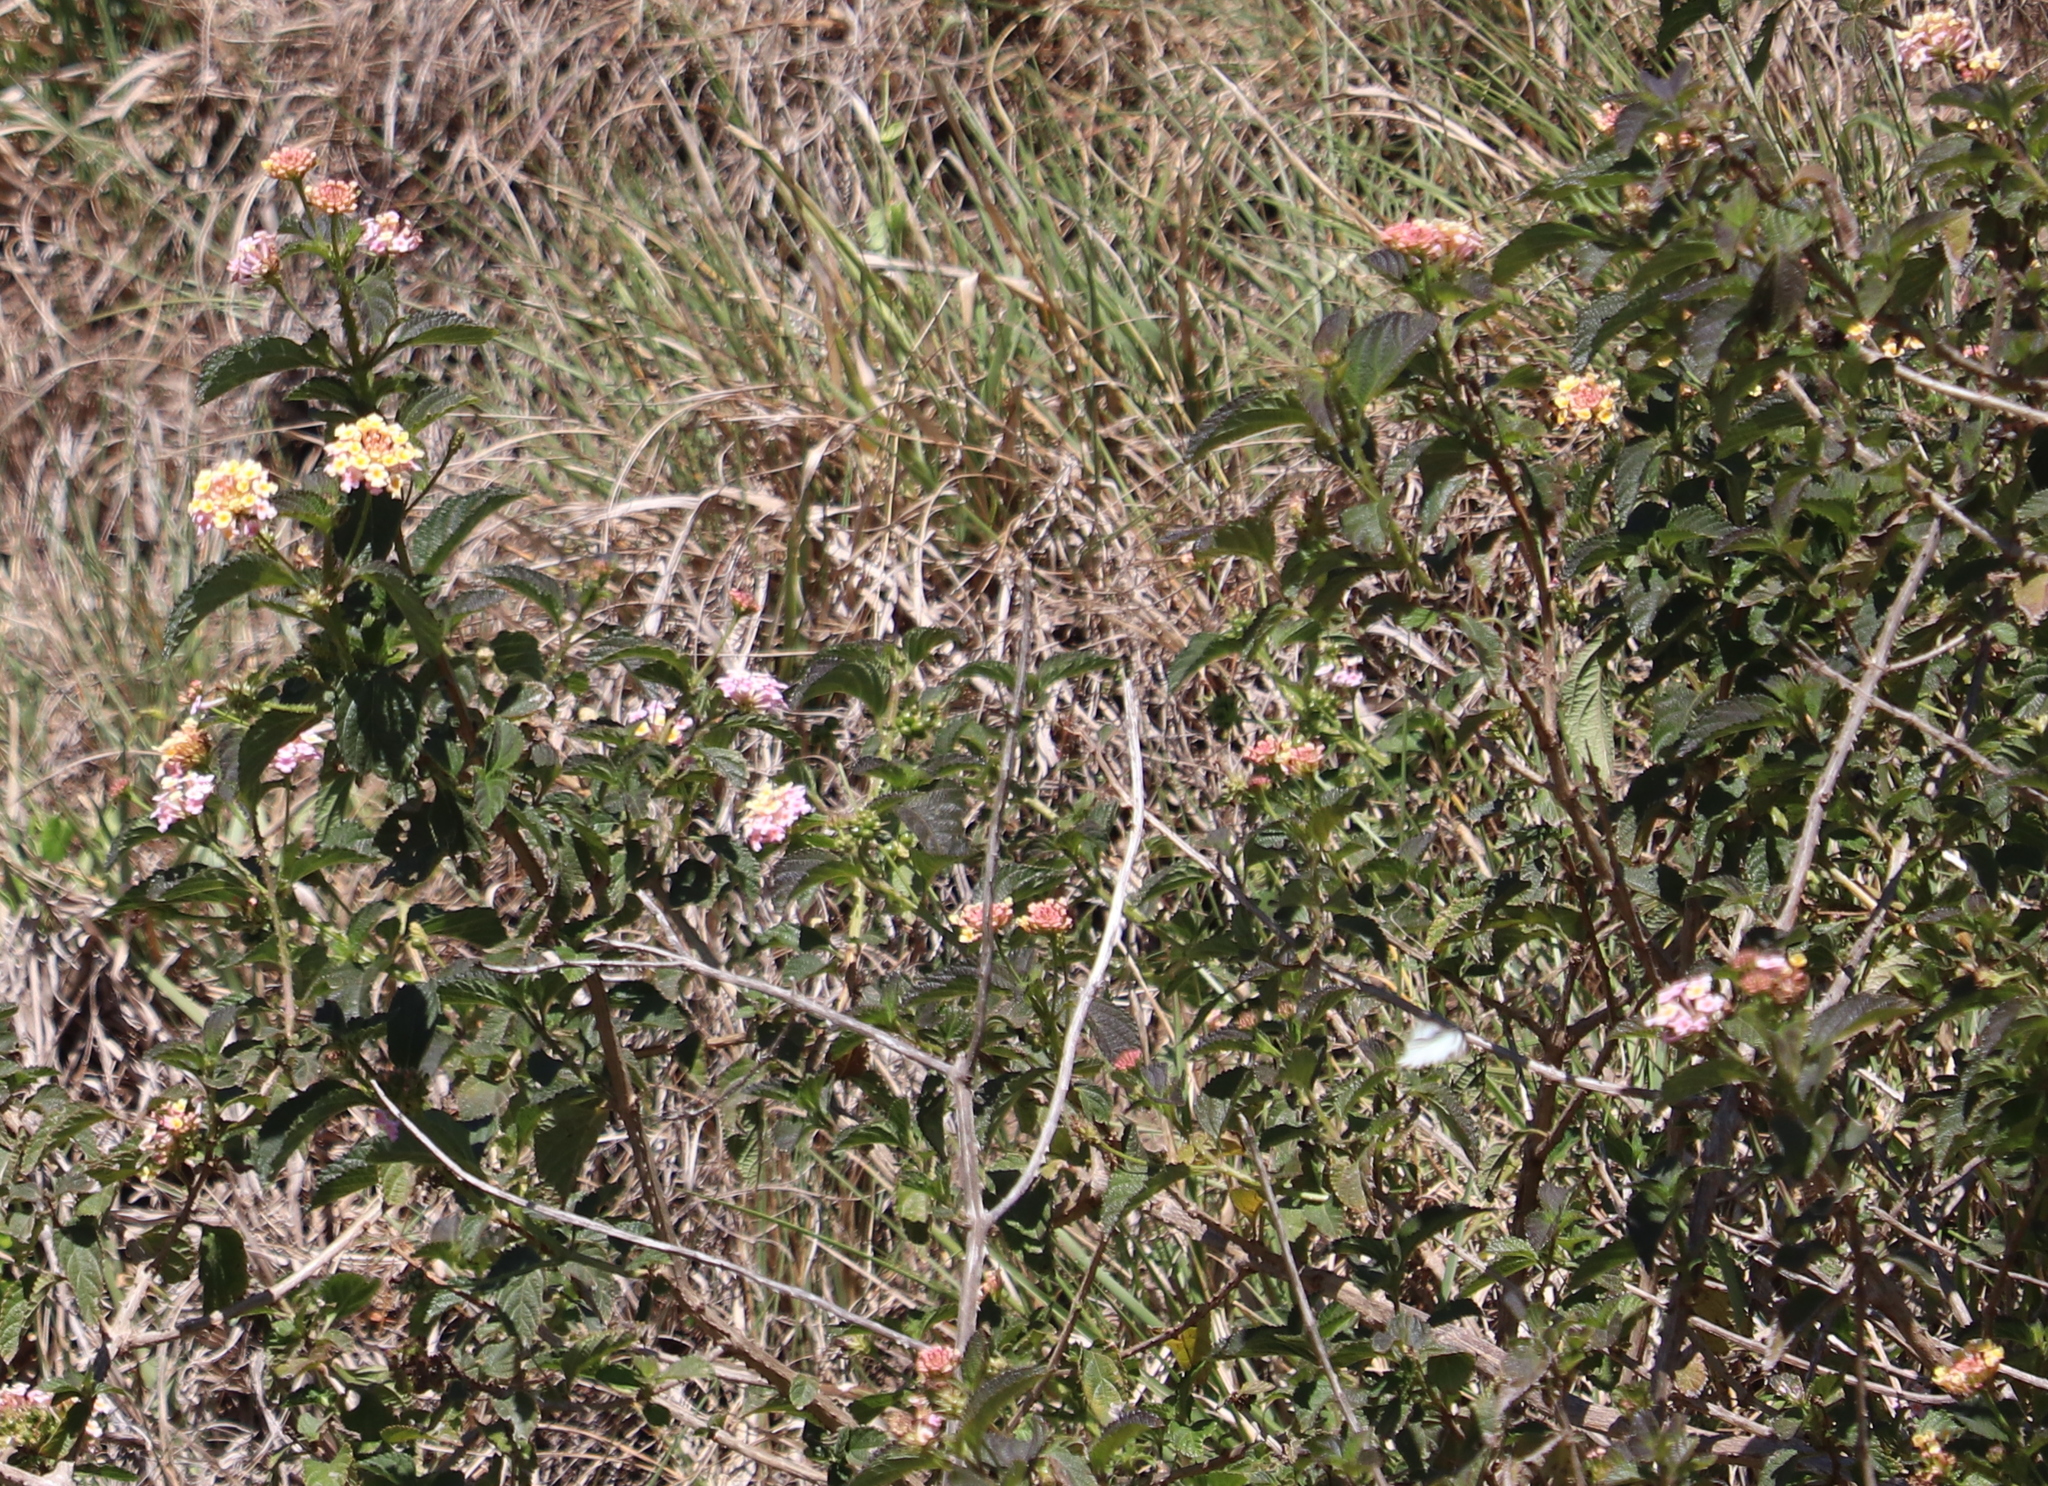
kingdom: Plantae
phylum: Tracheophyta
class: Magnoliopsida
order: Lamiales
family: Verbenaceae
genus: Lantana
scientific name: Lantana camara
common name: Lantana
